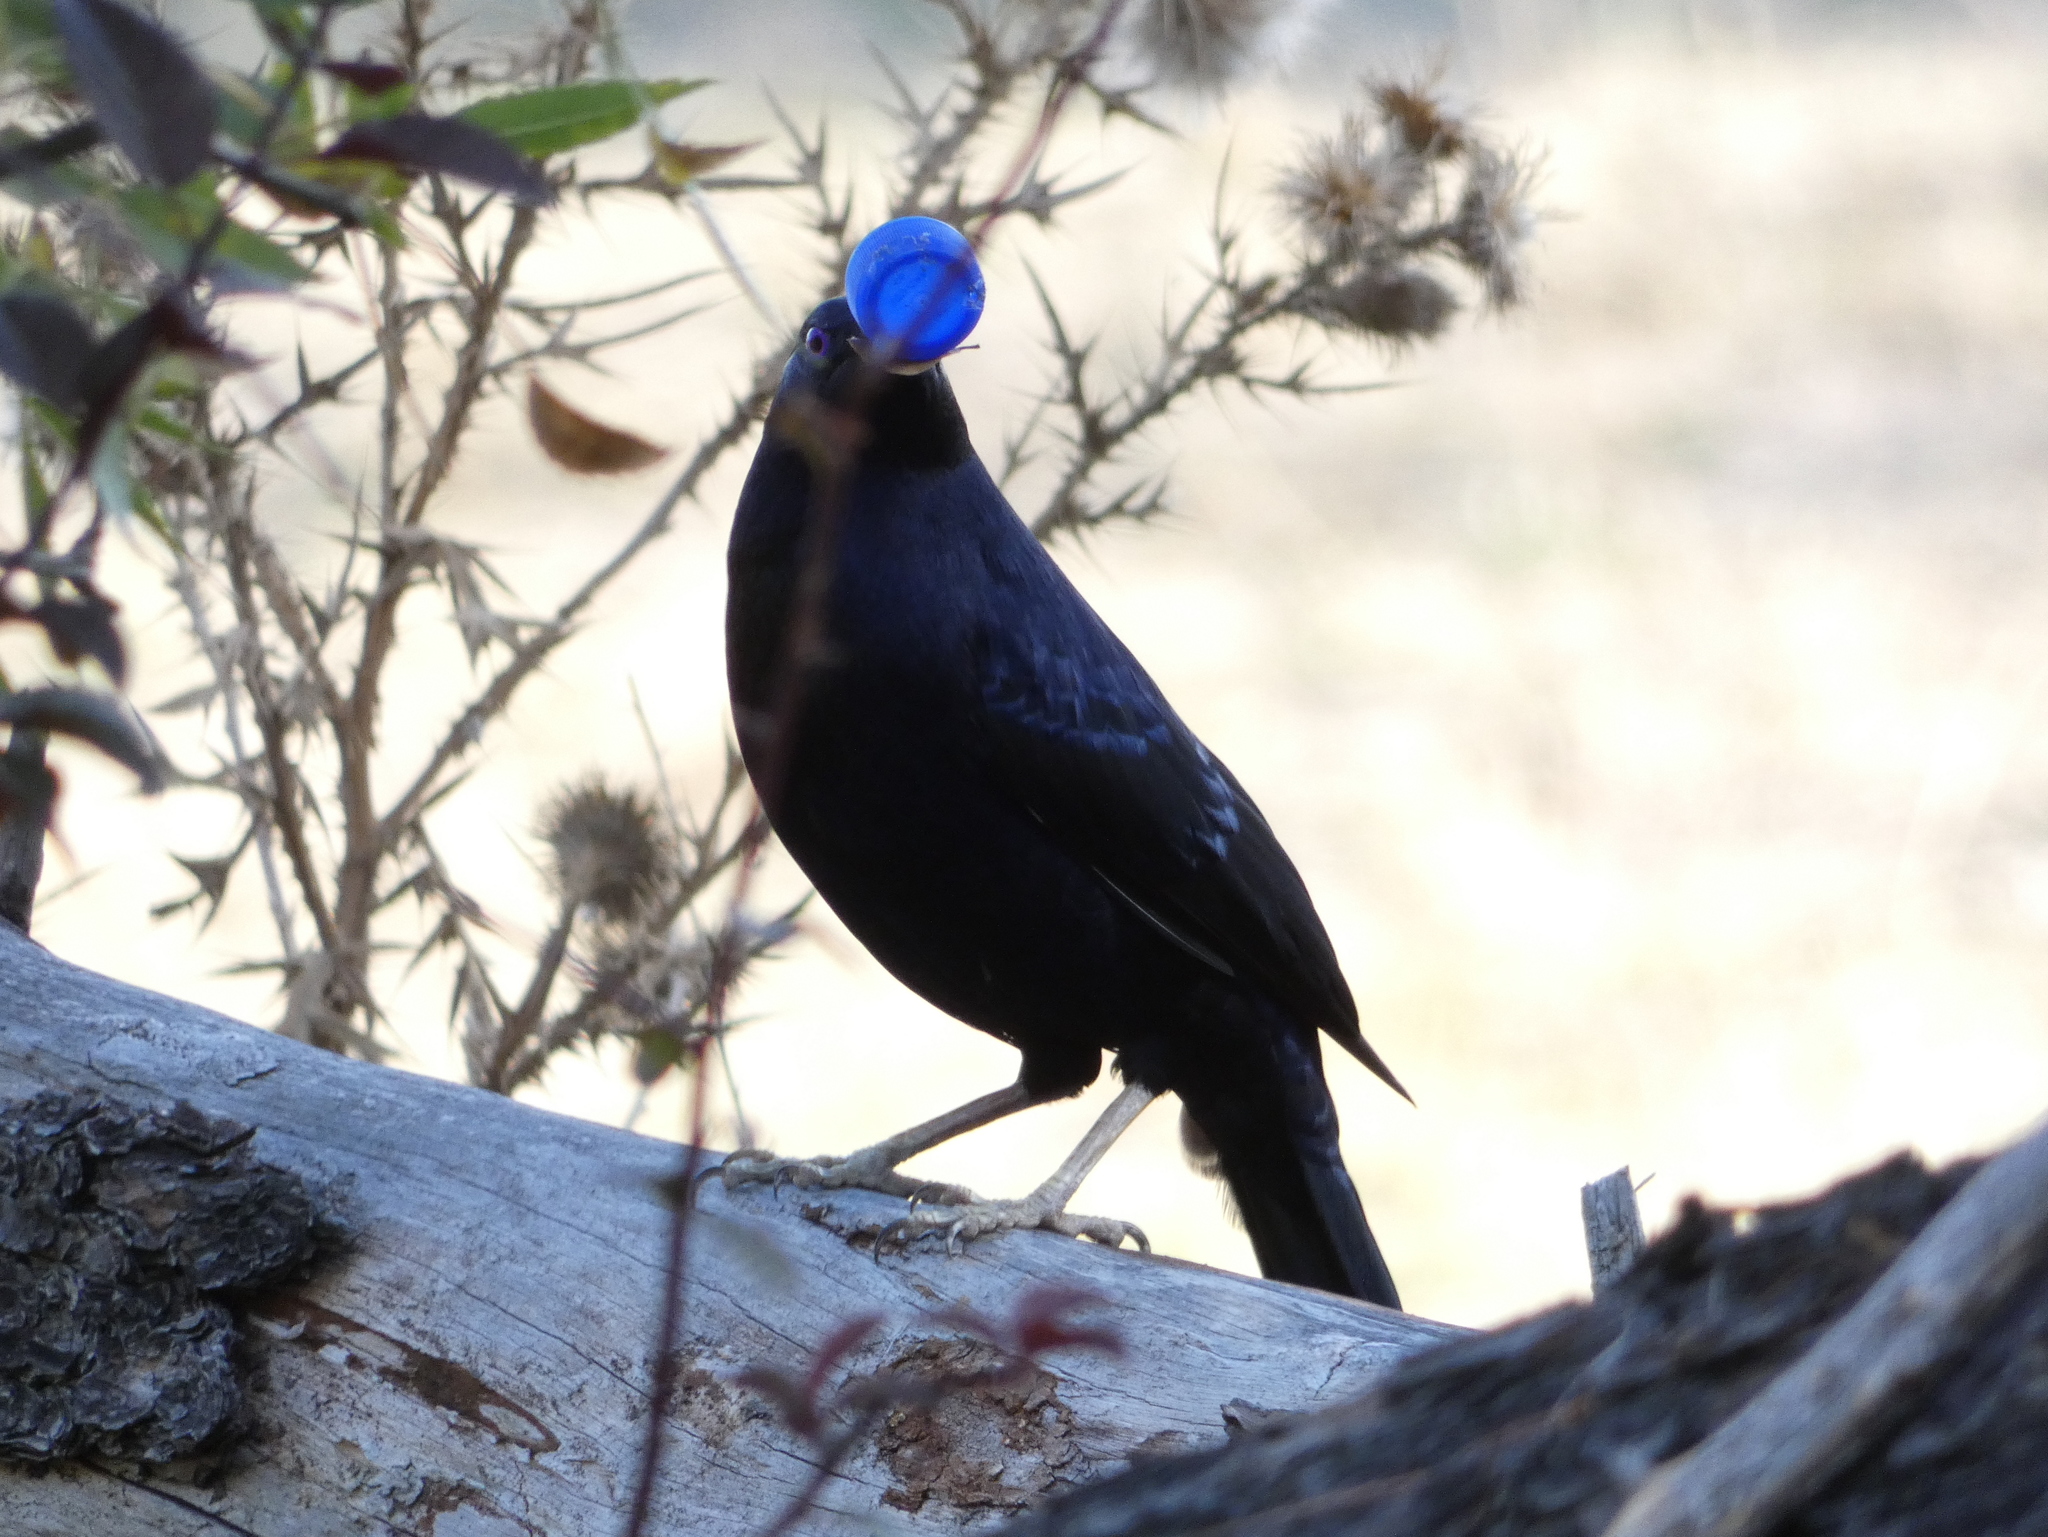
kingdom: Animalia
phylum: Chordata
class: Aves
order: Passeriformes
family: Ptilonorhynchidae
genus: Ptilonorhynchus
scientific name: Ptilonorhynchus violaceus
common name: Satin bowerbird
